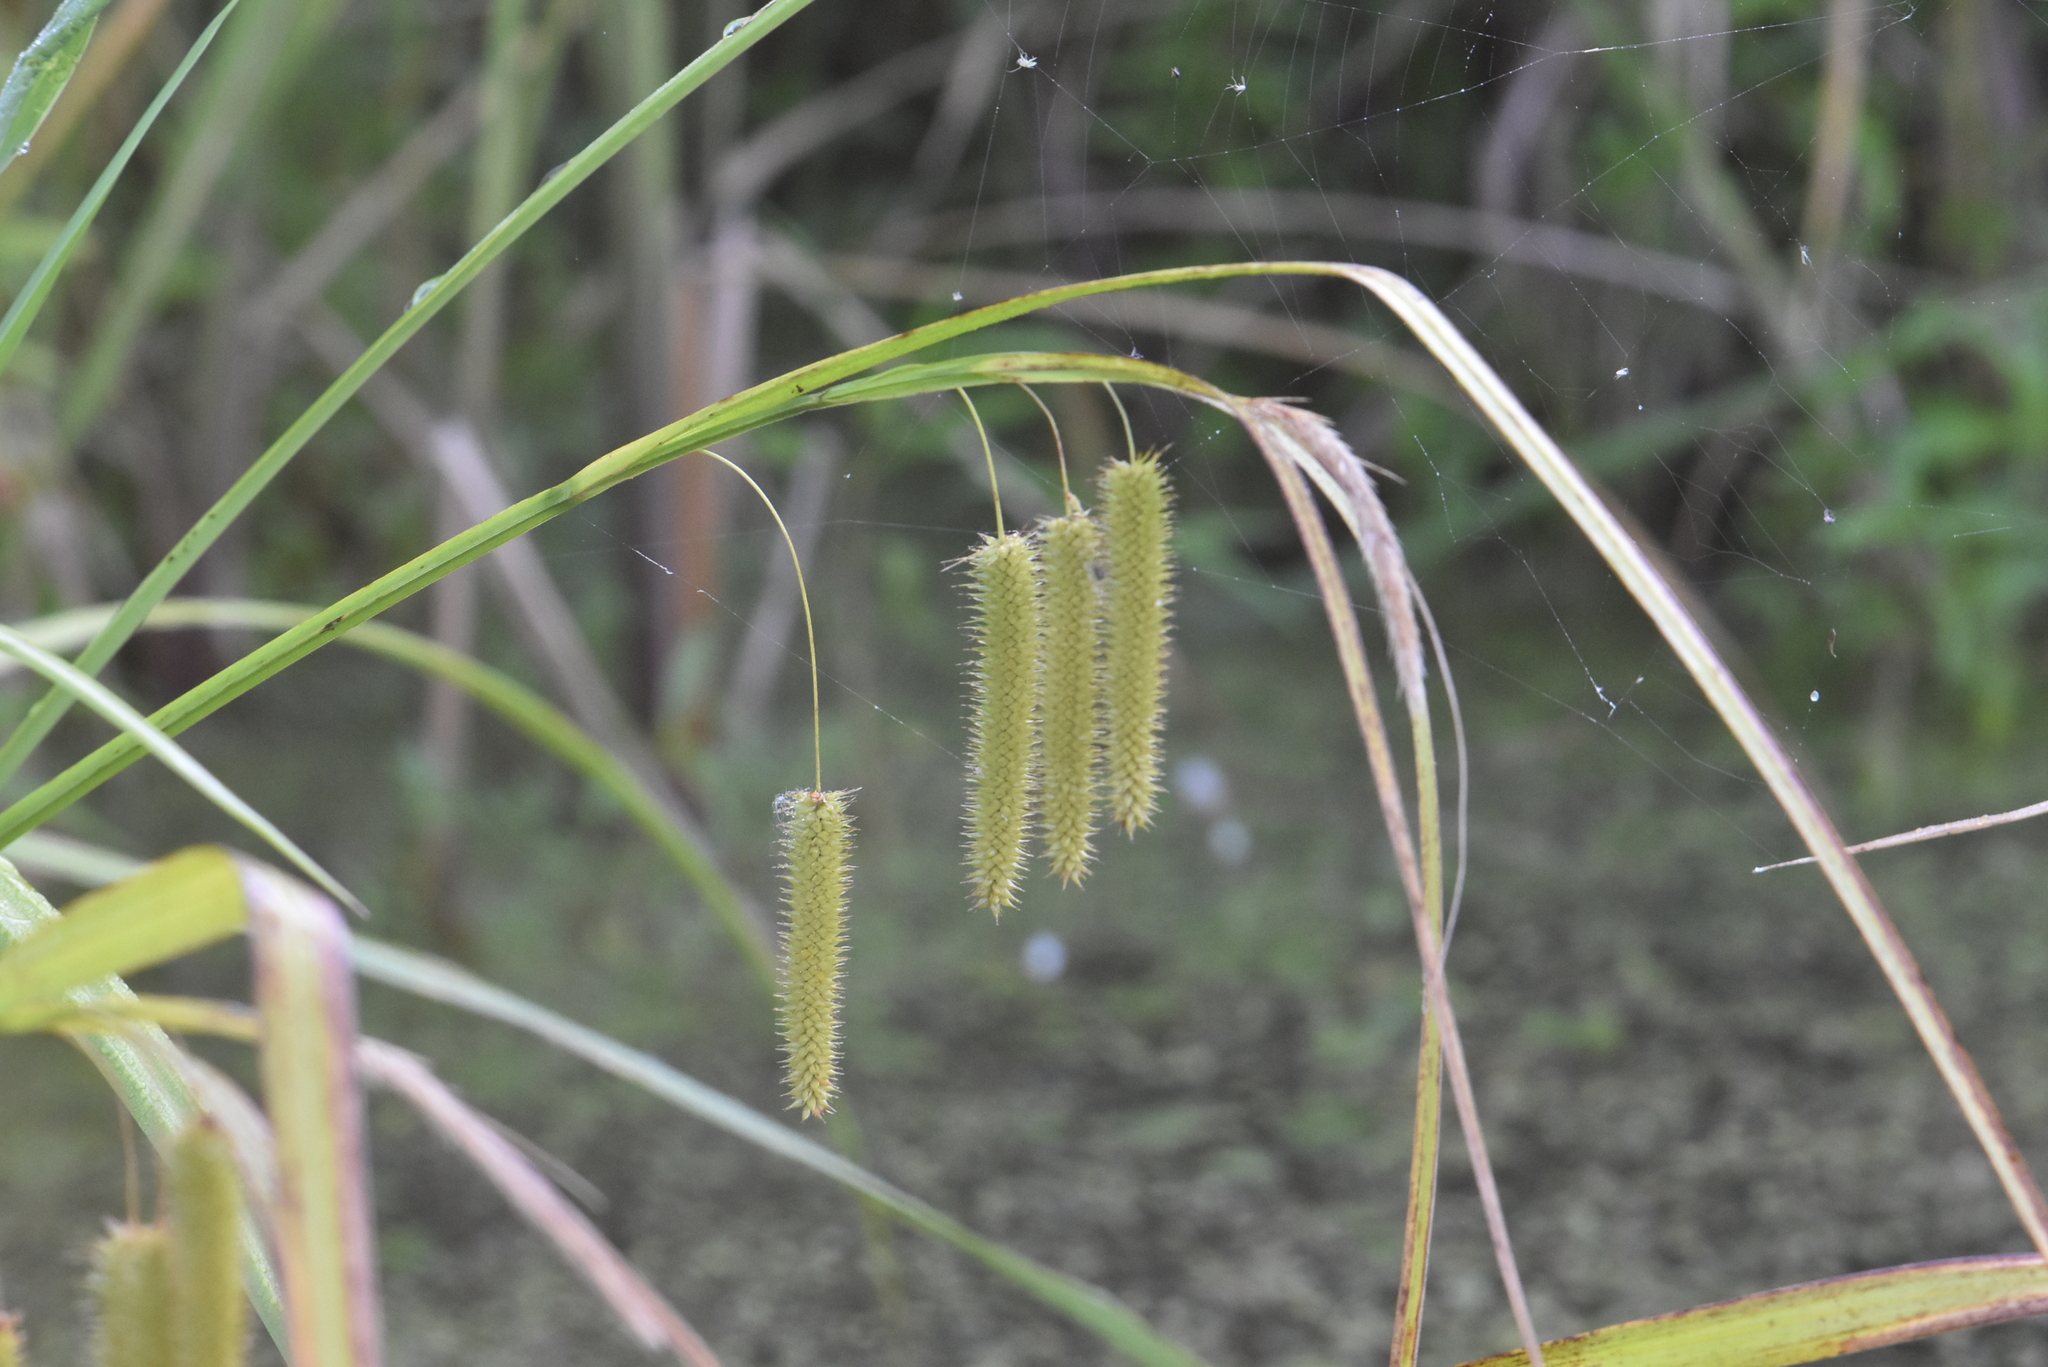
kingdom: Plantae
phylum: Tracheophyta
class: Liliopsida
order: Poales
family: Cyperaceae
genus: Carex
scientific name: Carex pseudocyperus
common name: Cyperus sedge
